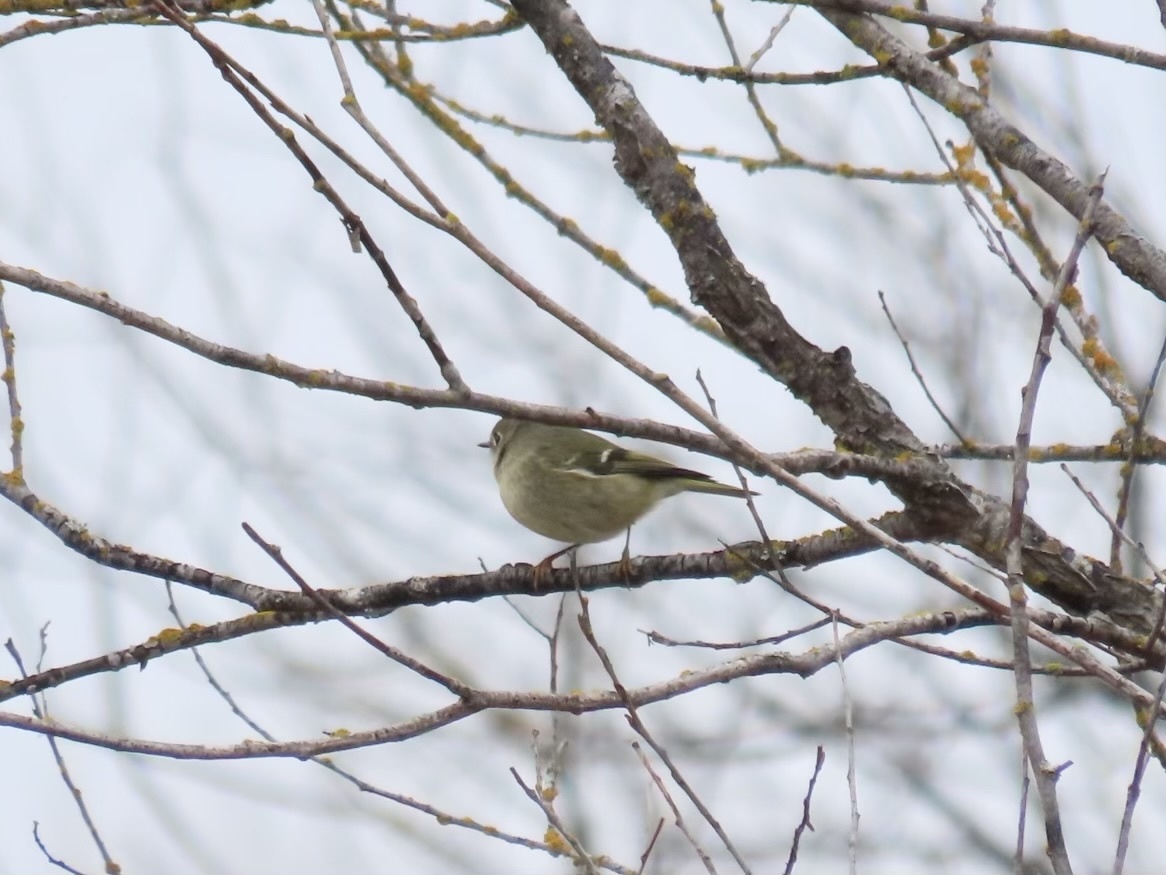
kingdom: Animalia
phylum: Chordata
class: Aves
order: Passeriformes
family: Regulidae
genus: Regulus
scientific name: Regulus calendula
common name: Ruby-crowned kinglet
